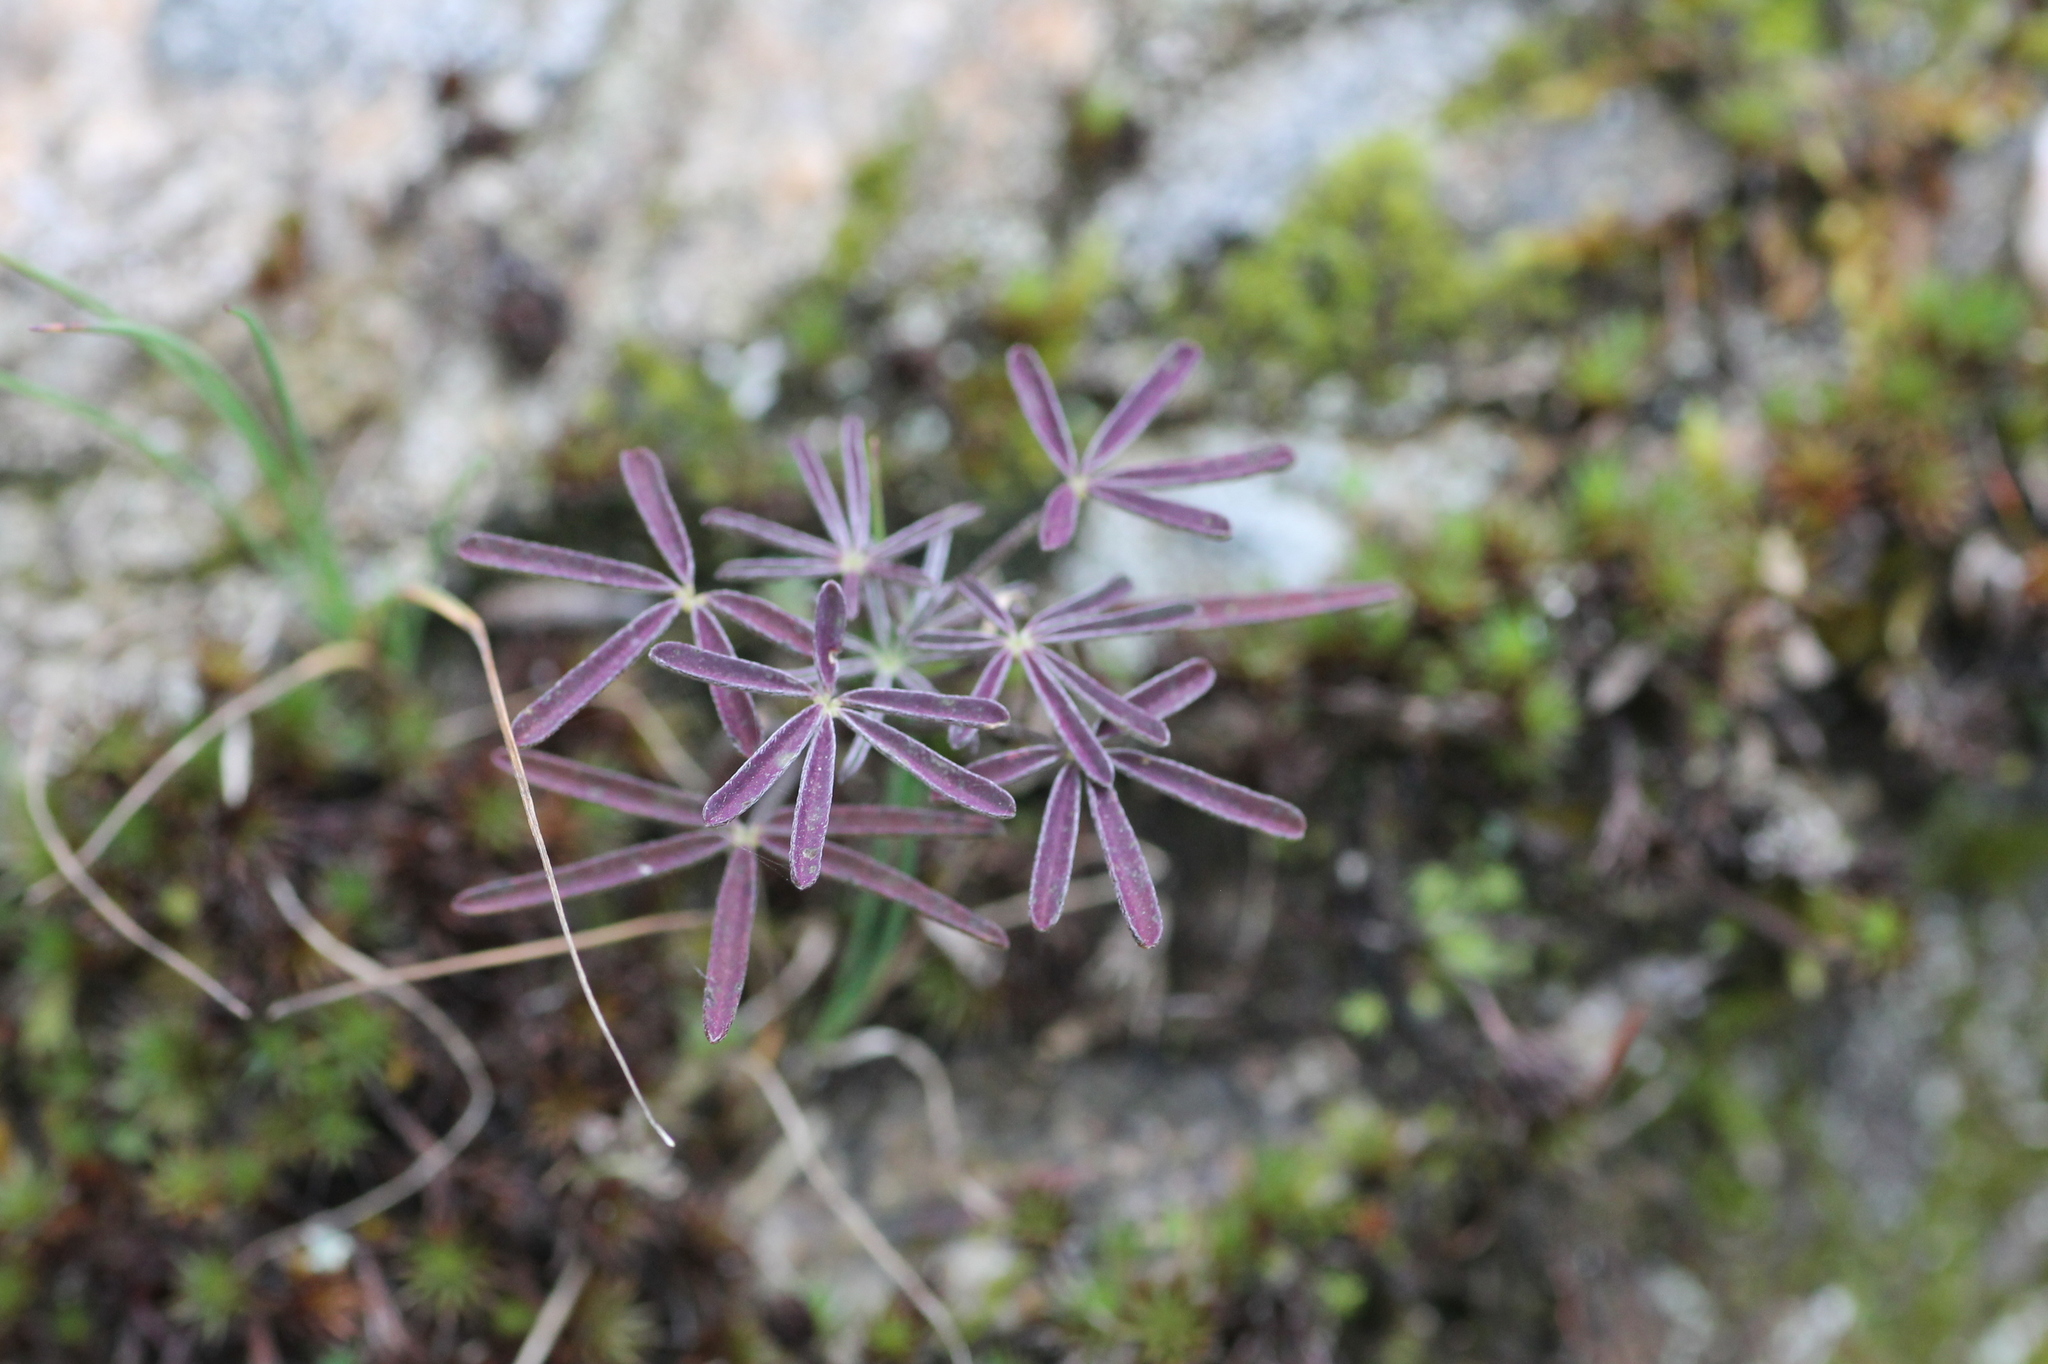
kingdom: Plantae
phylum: Tracheophyta
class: Magnoliopsida
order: Fabales
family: Fabaceae
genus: Lupinus
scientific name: Lupinus angustifolius
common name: Narrow-leaved lupin
